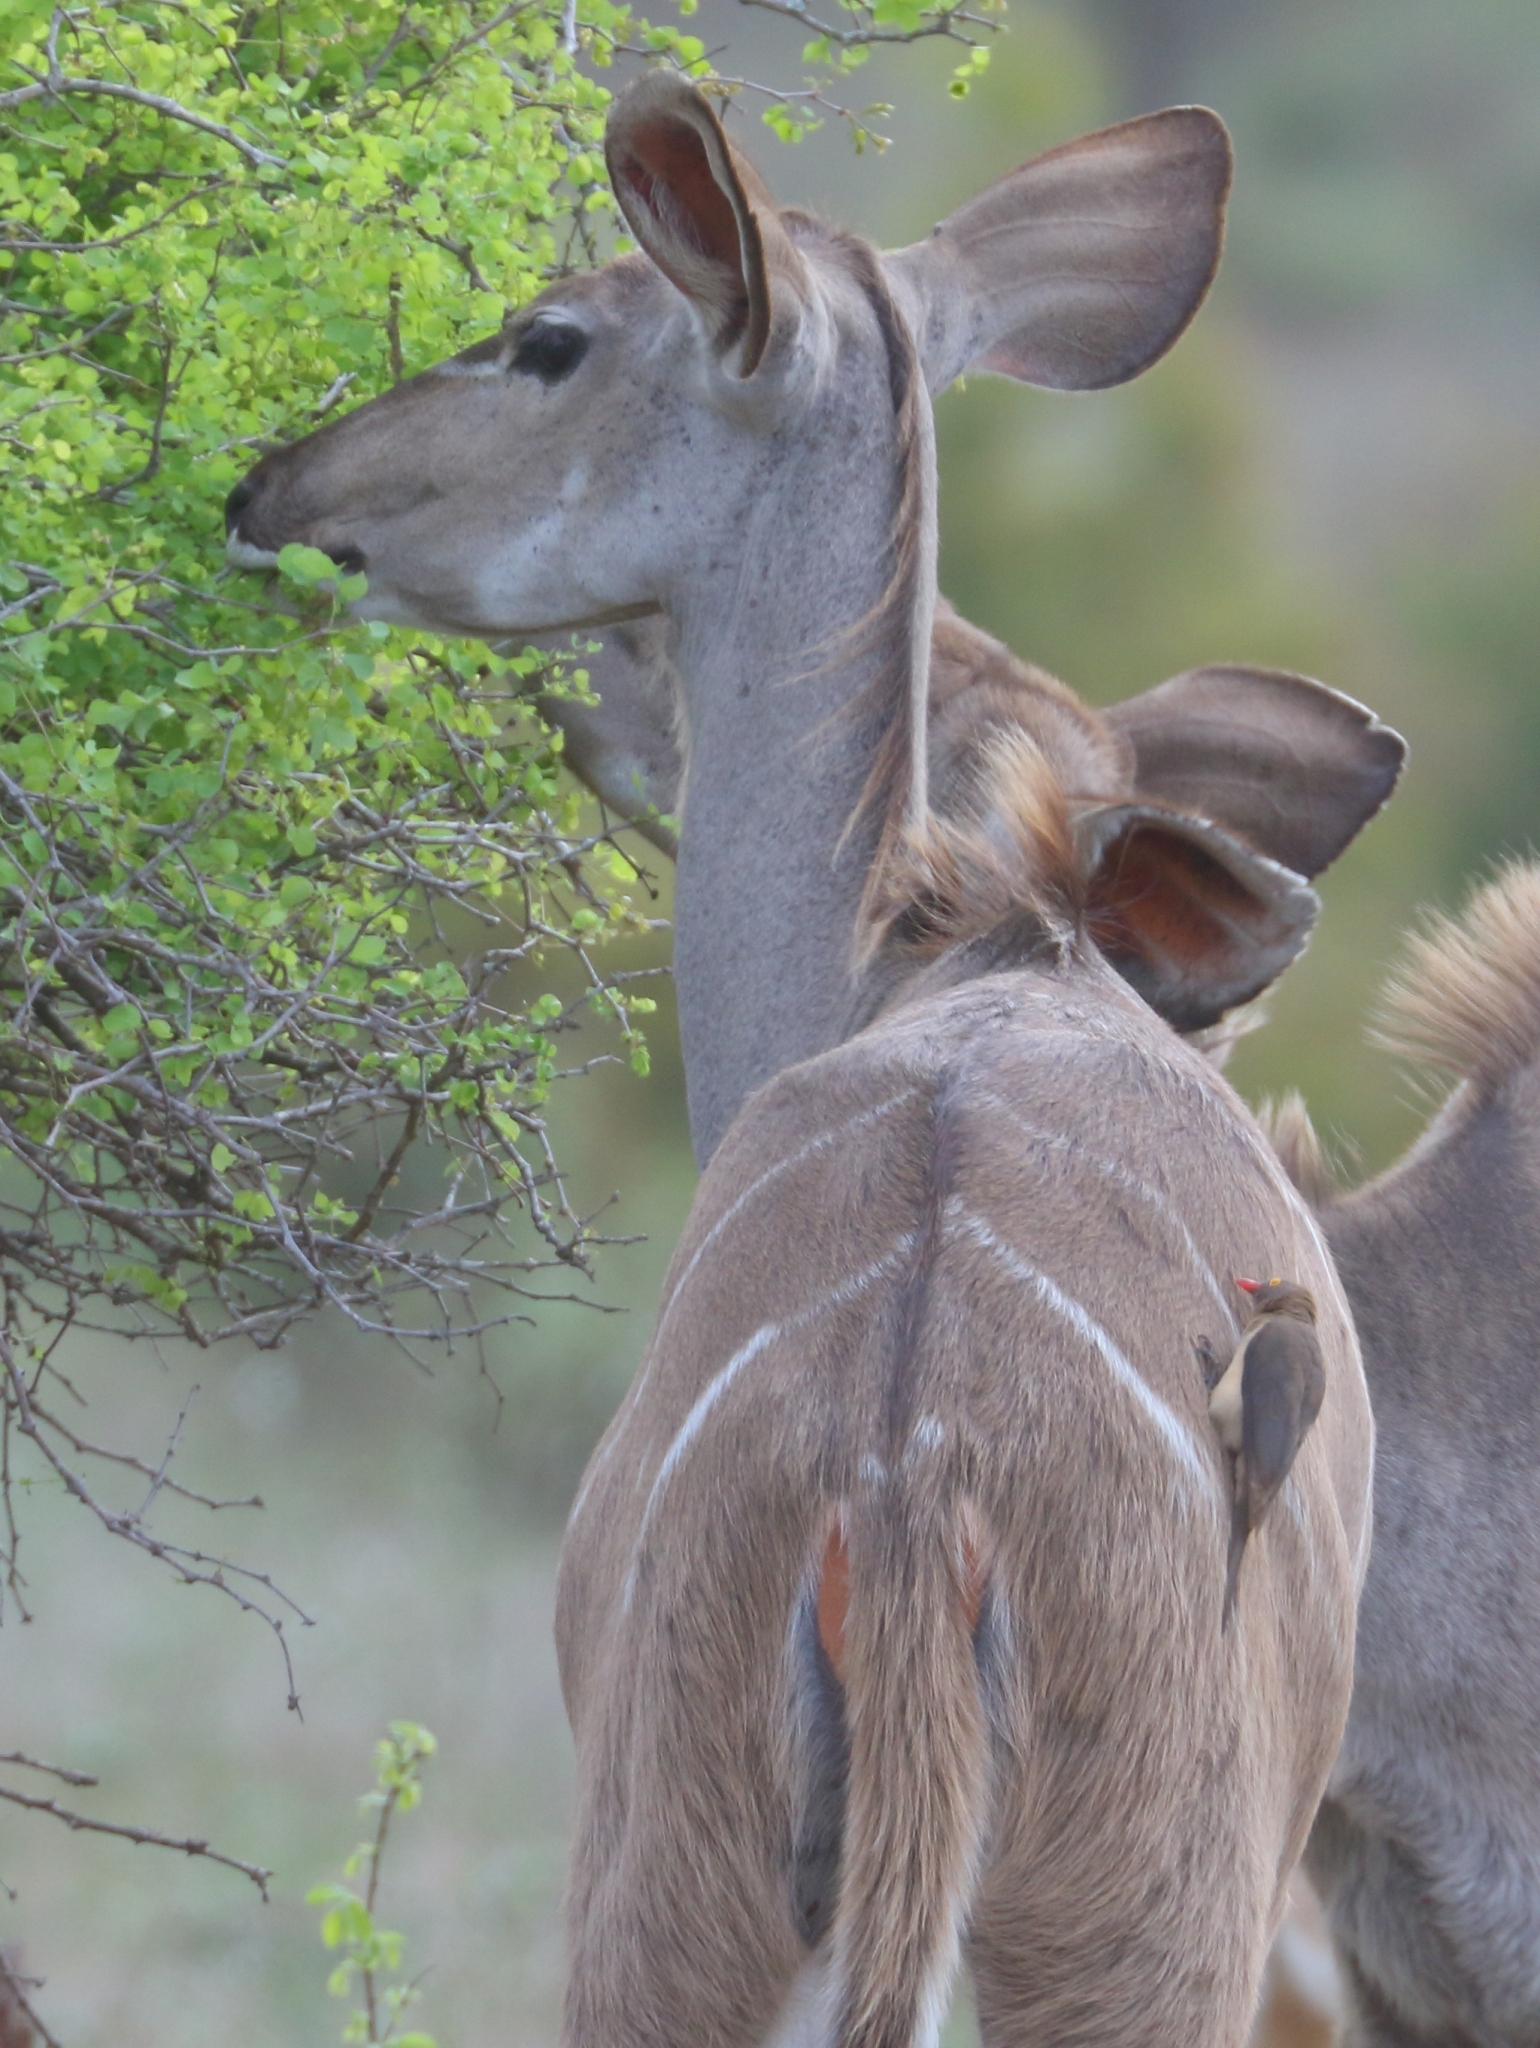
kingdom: Animalia
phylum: Chordata
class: Mammalia
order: Artiodactyla
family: Bovidae
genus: Tragelaphus
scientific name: Tragelaphus strepsiceros
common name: Greater kudu
